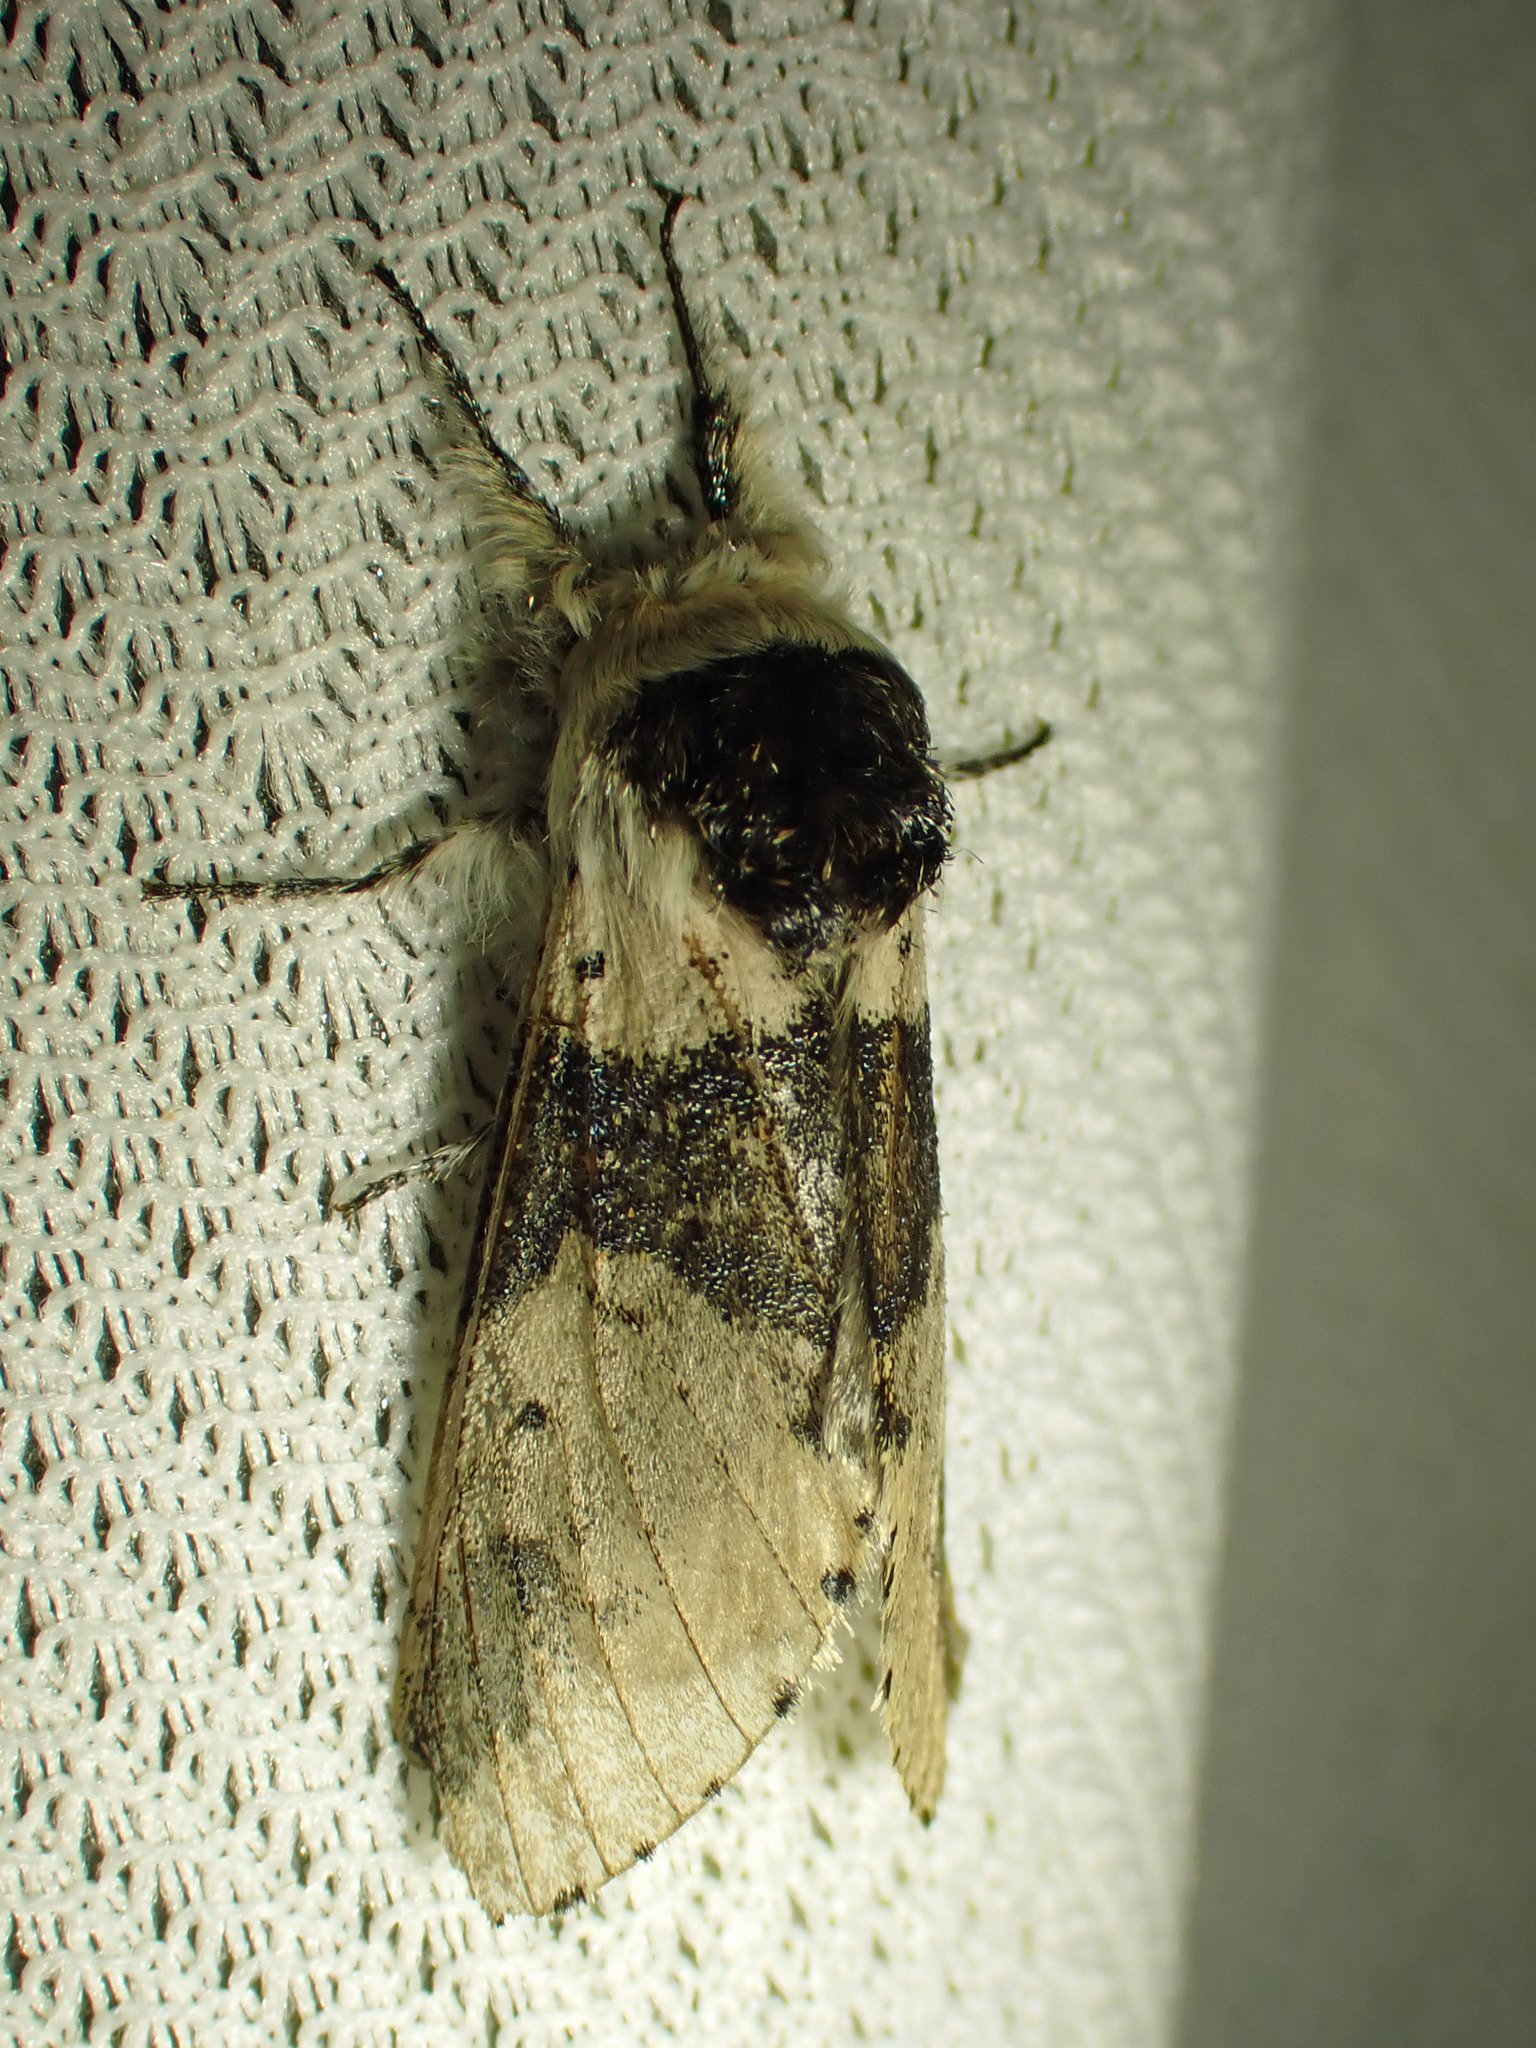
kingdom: Animalia
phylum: Arthropoda
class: Insecta
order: Lepidoptera
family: Notodontidae
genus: Furcula
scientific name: Furcula modesta
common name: Modest furcula moth
